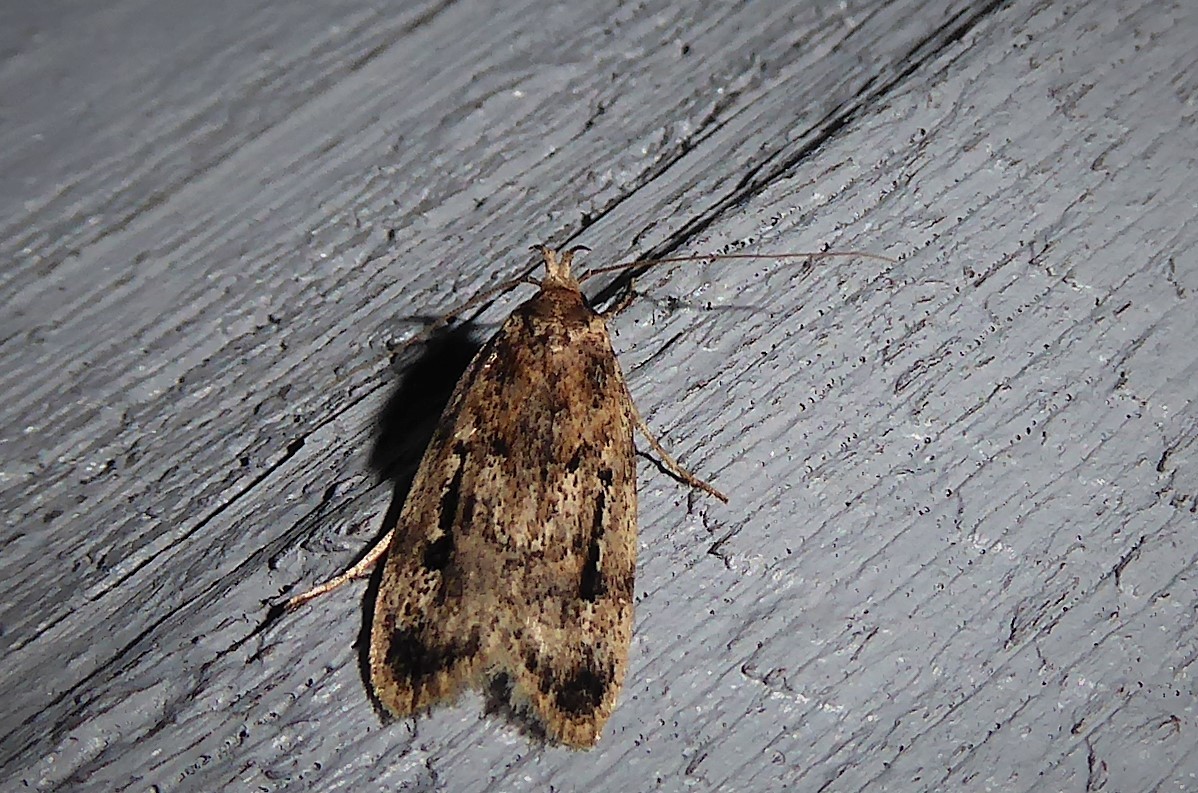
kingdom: Animalia
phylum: Arthropoda
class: Insecta
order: Lepidoptera
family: Oecophoridae
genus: Barea
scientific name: Barea exarcha
